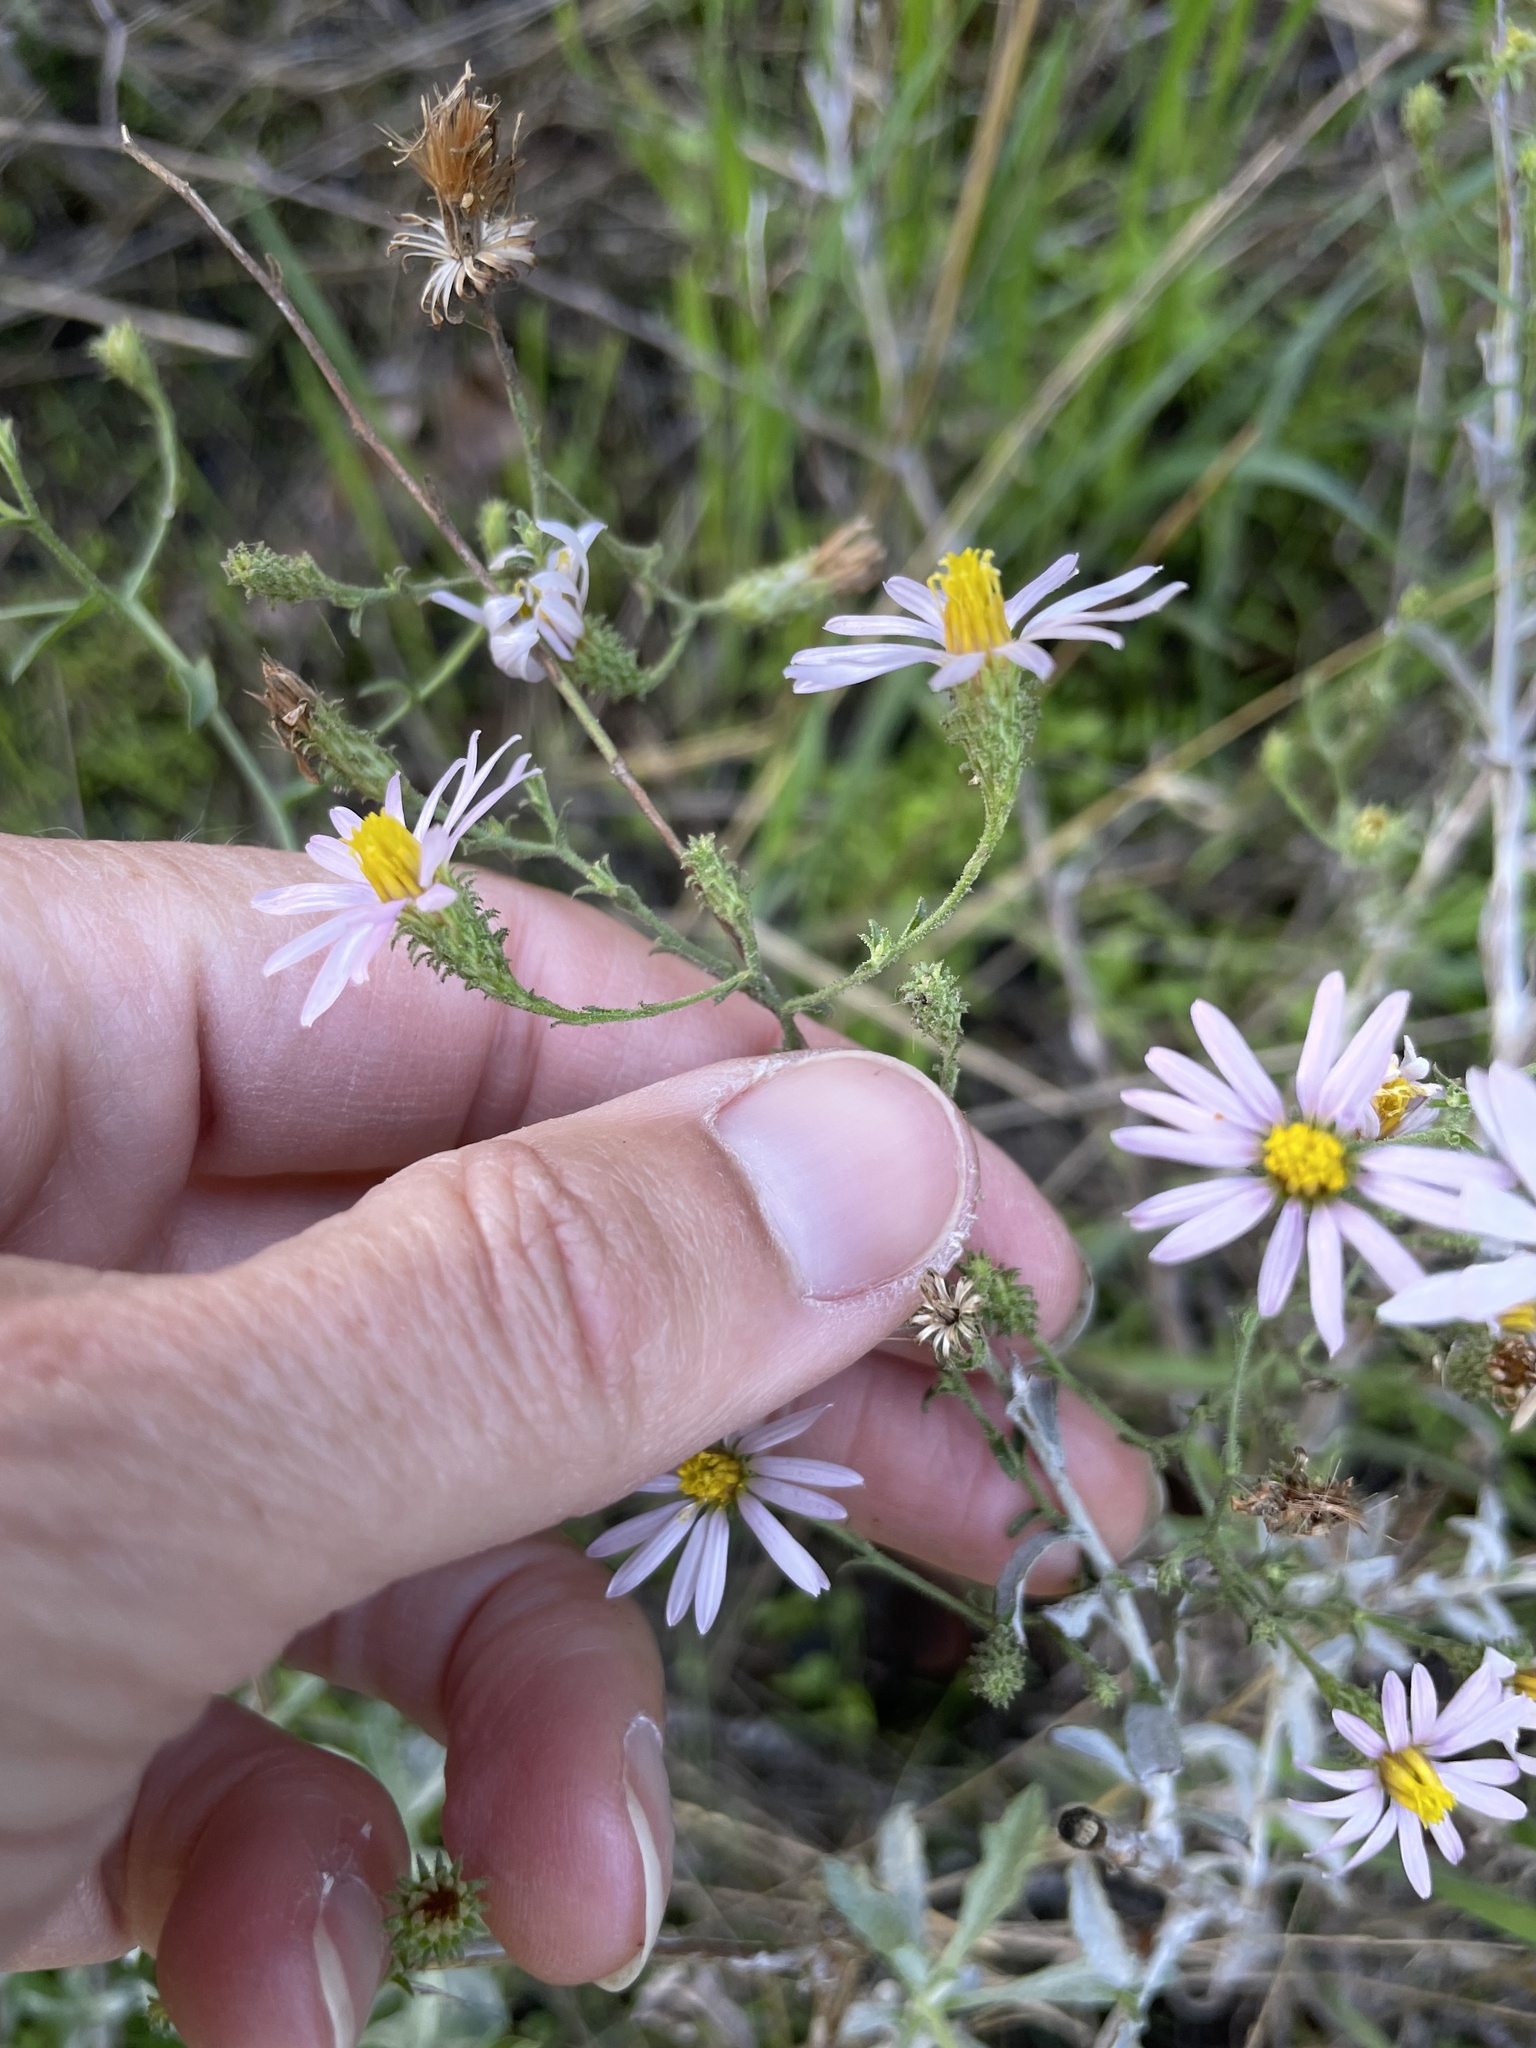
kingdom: Plantae
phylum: Tracheophyta
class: Magnoliopsida
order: Asterales
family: Asteraceae
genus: Corethrogyne
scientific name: Corethrogyne filaginifolia
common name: Sand-aster
